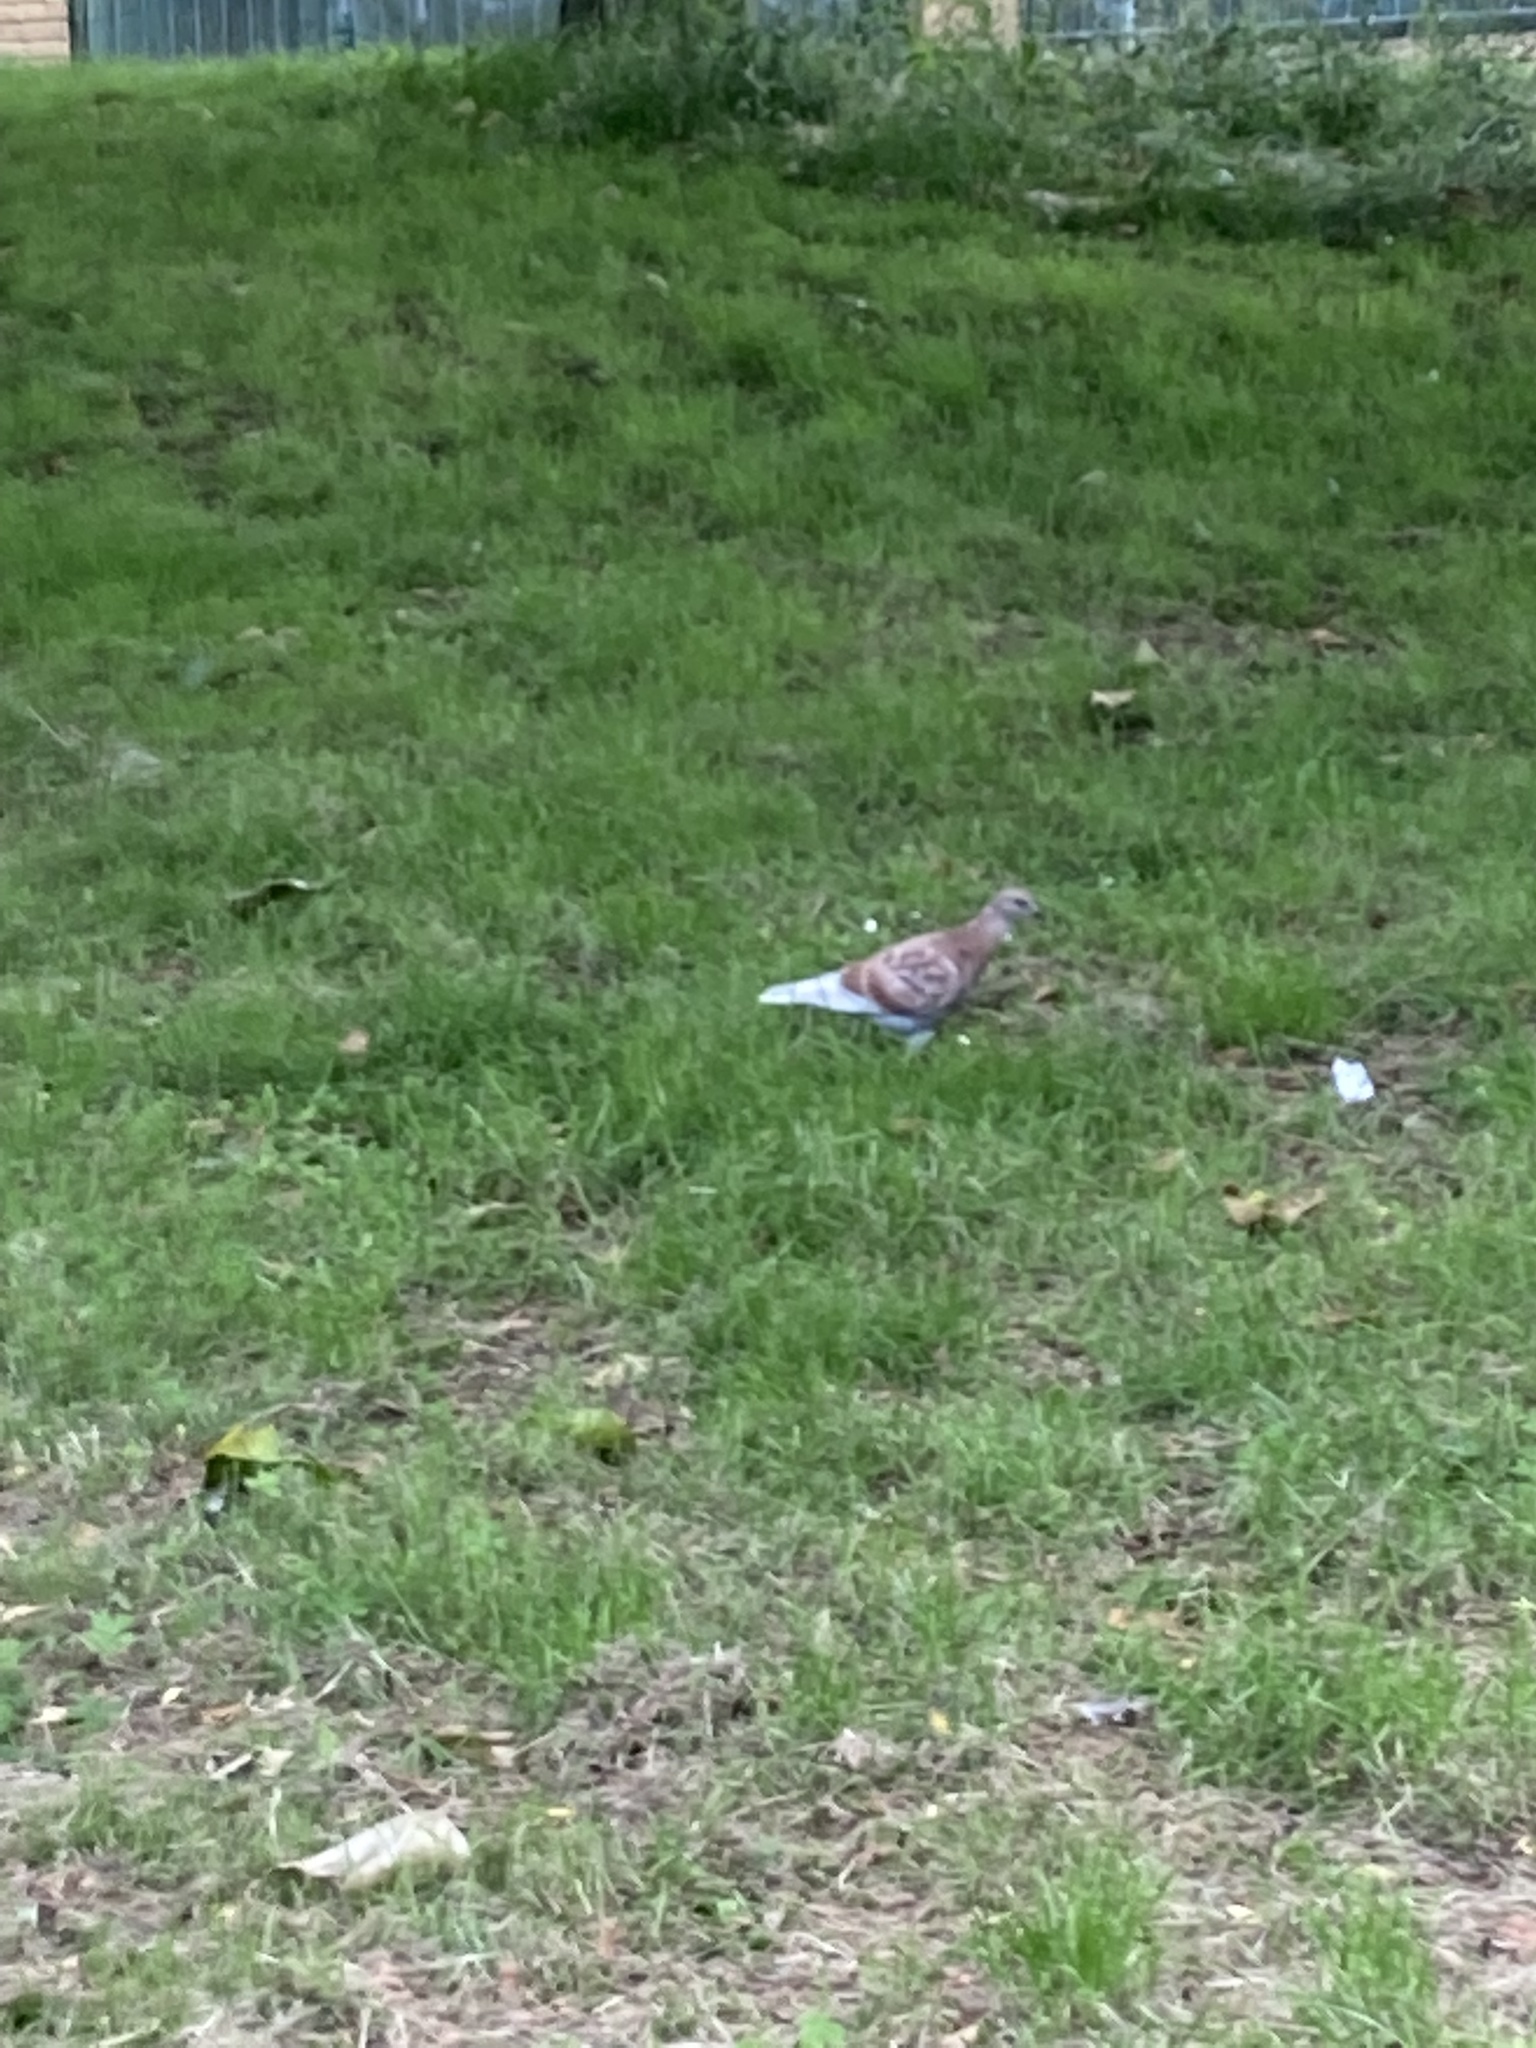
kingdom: Animalia
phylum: Chordata
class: Aves
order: Columbiformes
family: Columbidae
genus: Columba
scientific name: Columba livia
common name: Rock pigeon
